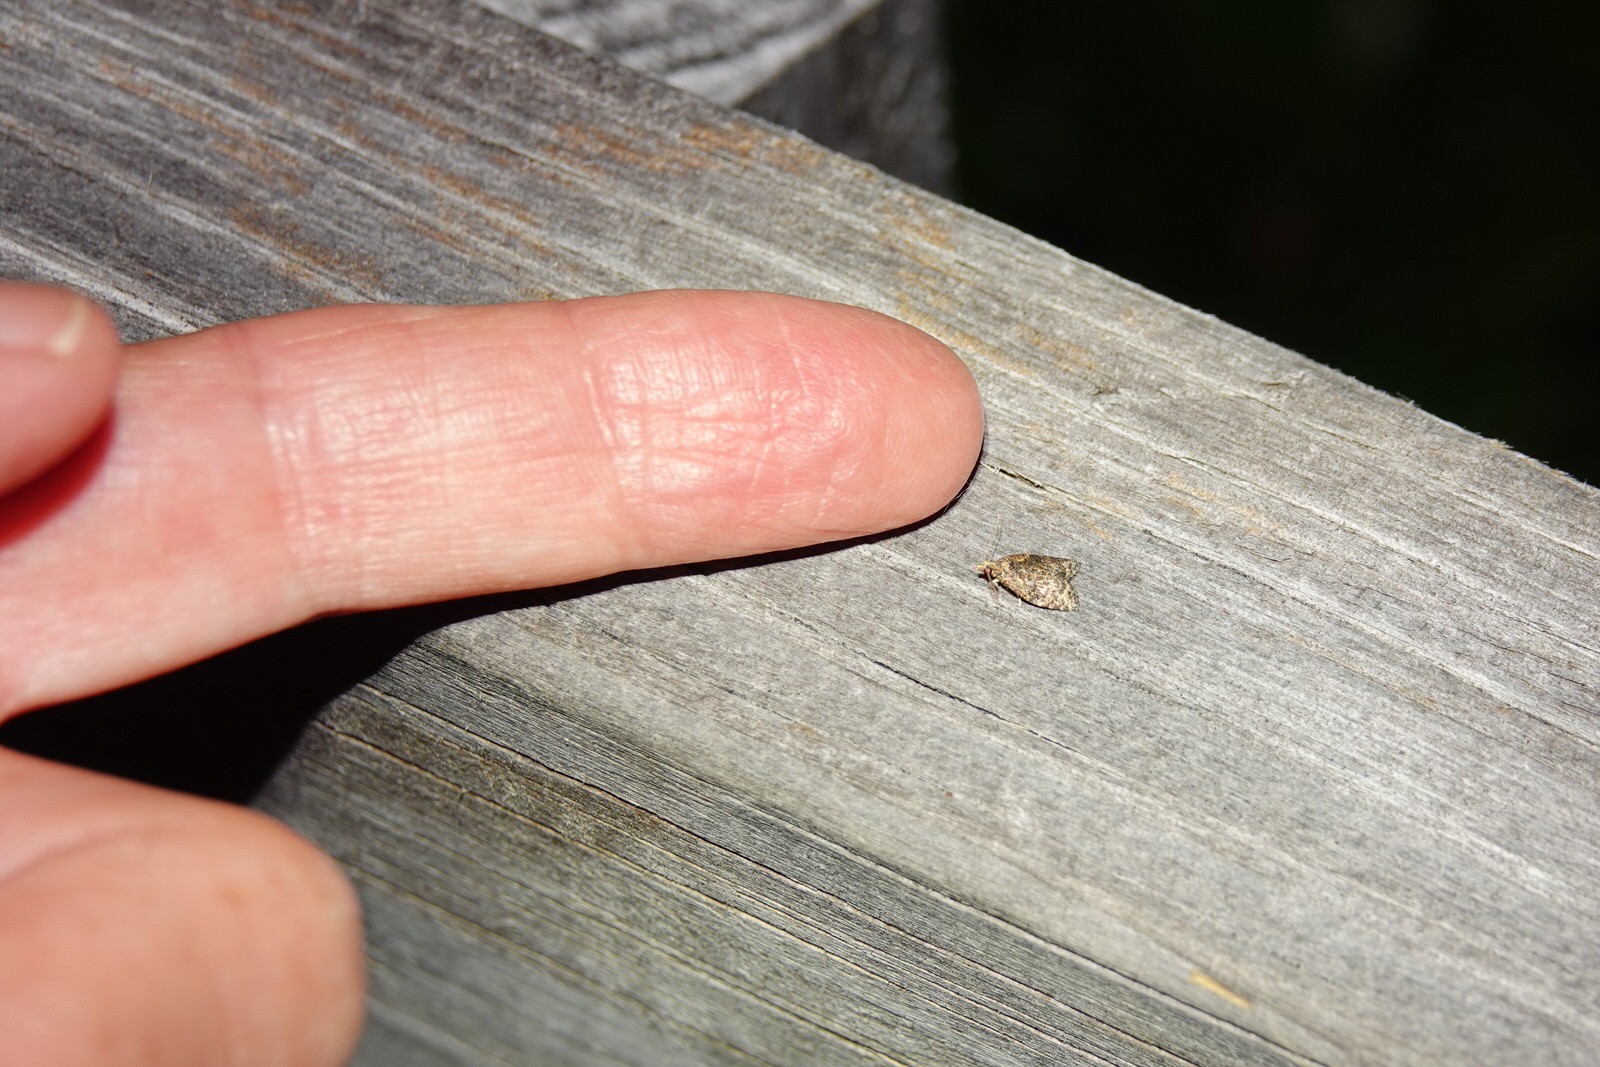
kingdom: Animalia
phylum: Arthropoda
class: Insecta
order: Lepidoptera
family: Tortricidae
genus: Capua
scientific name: Capua intractana
